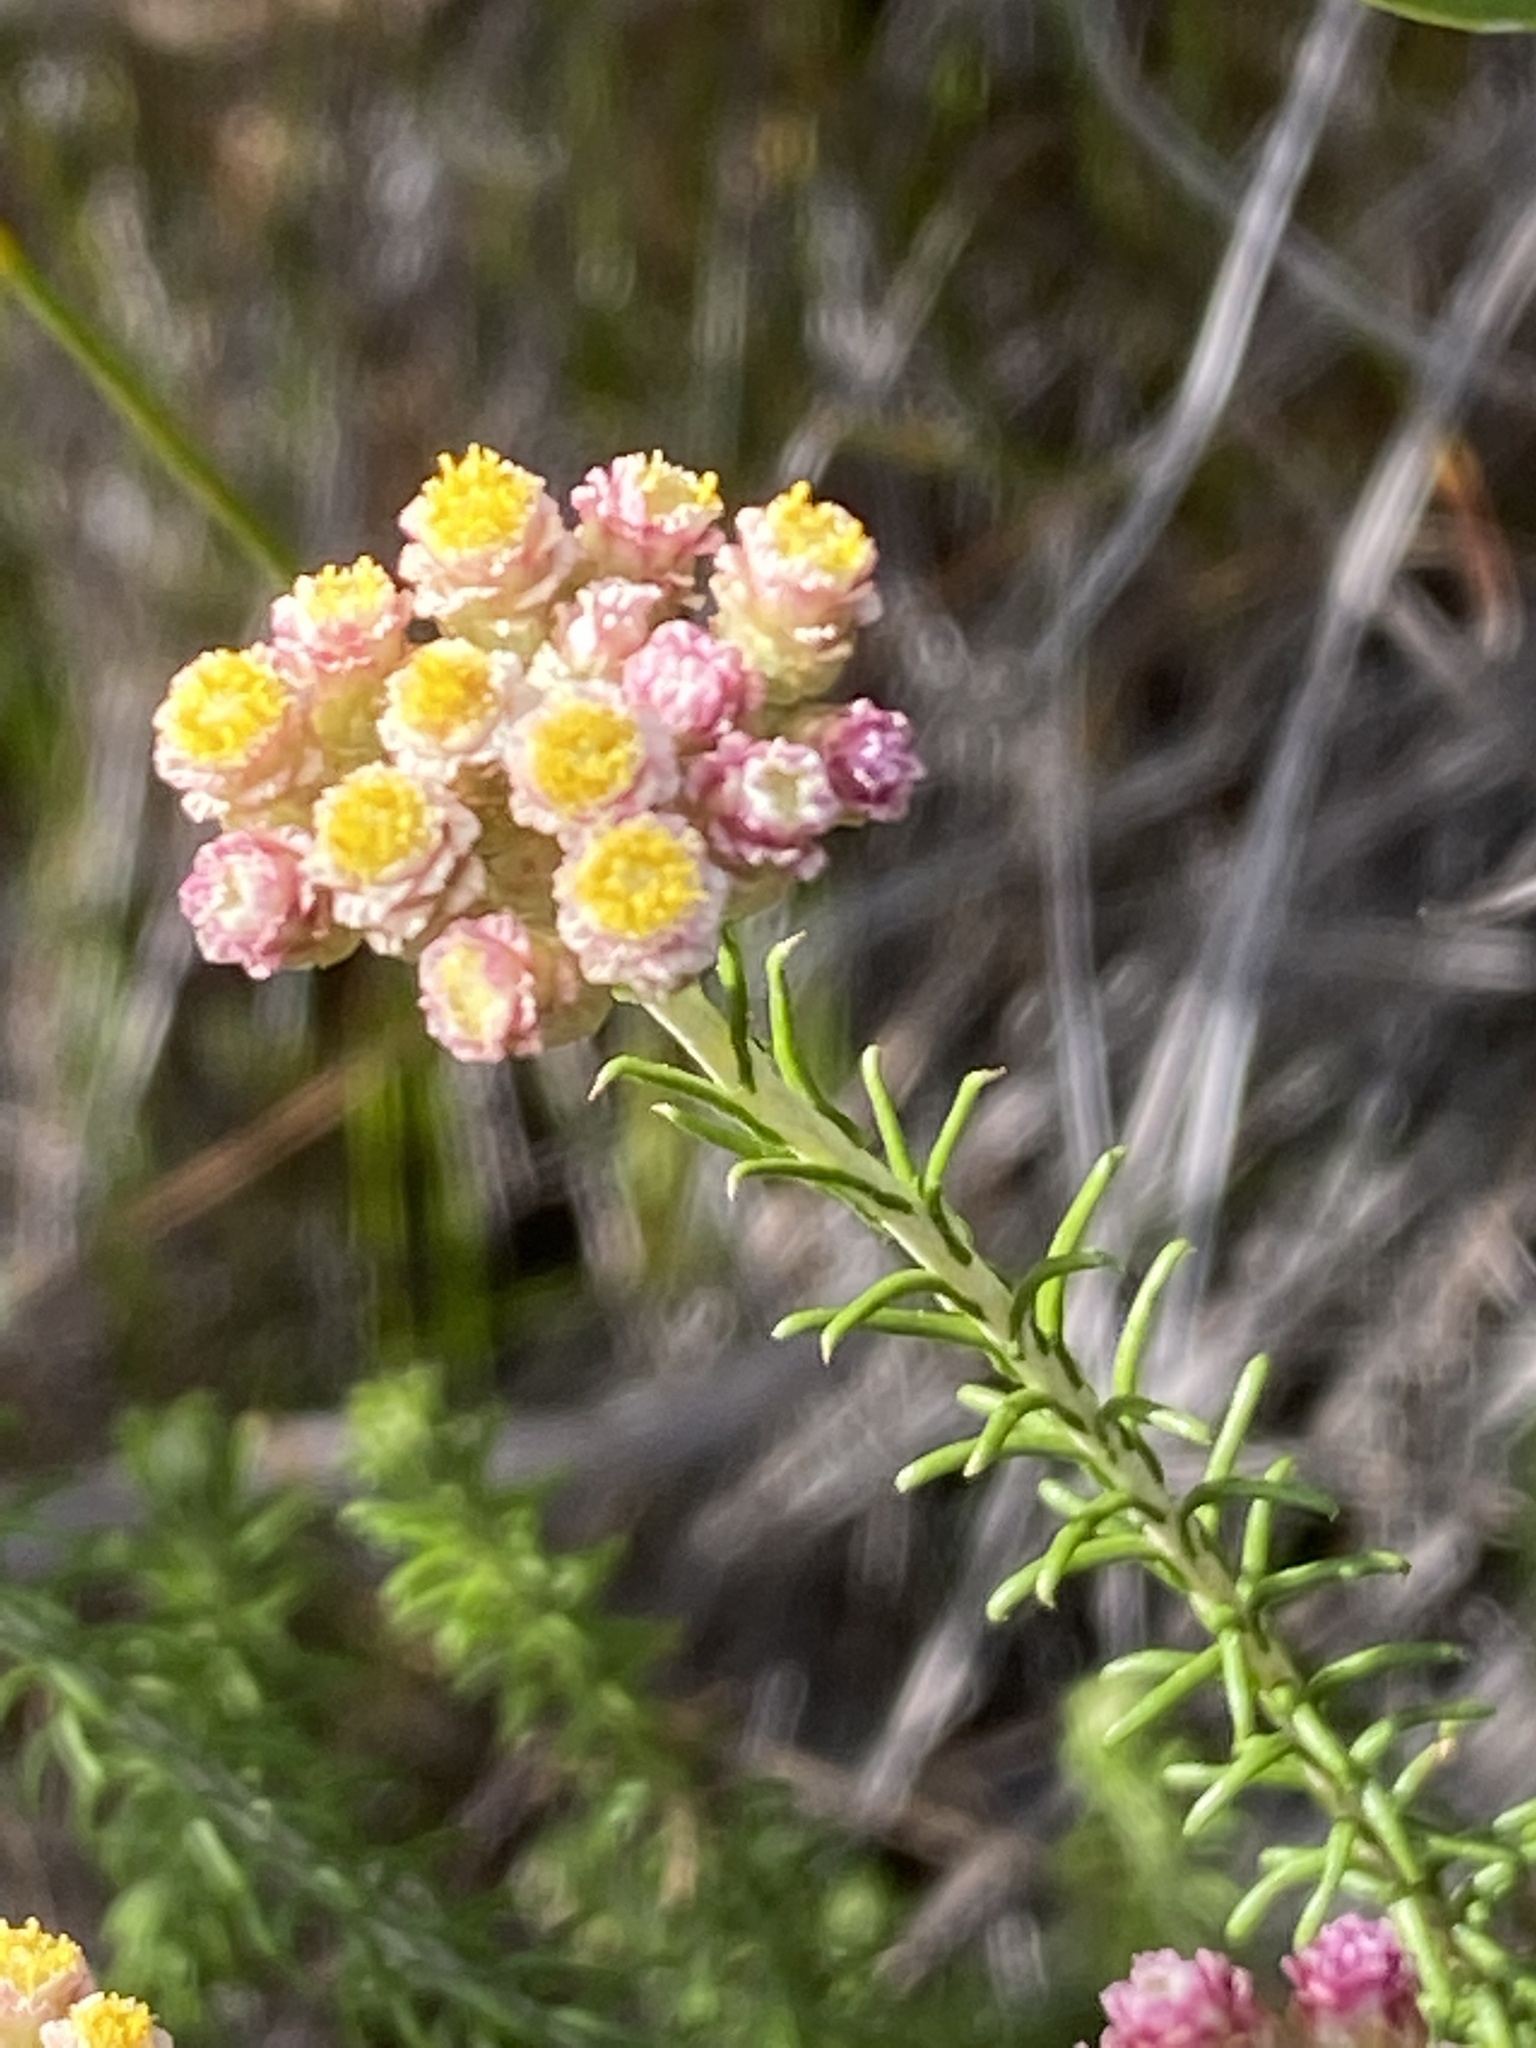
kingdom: Plantae
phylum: Tracheophyta
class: Magnoliopsida
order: Asterales
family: Asteraceae
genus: Helichrysum
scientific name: Helichrysum teretifolium
